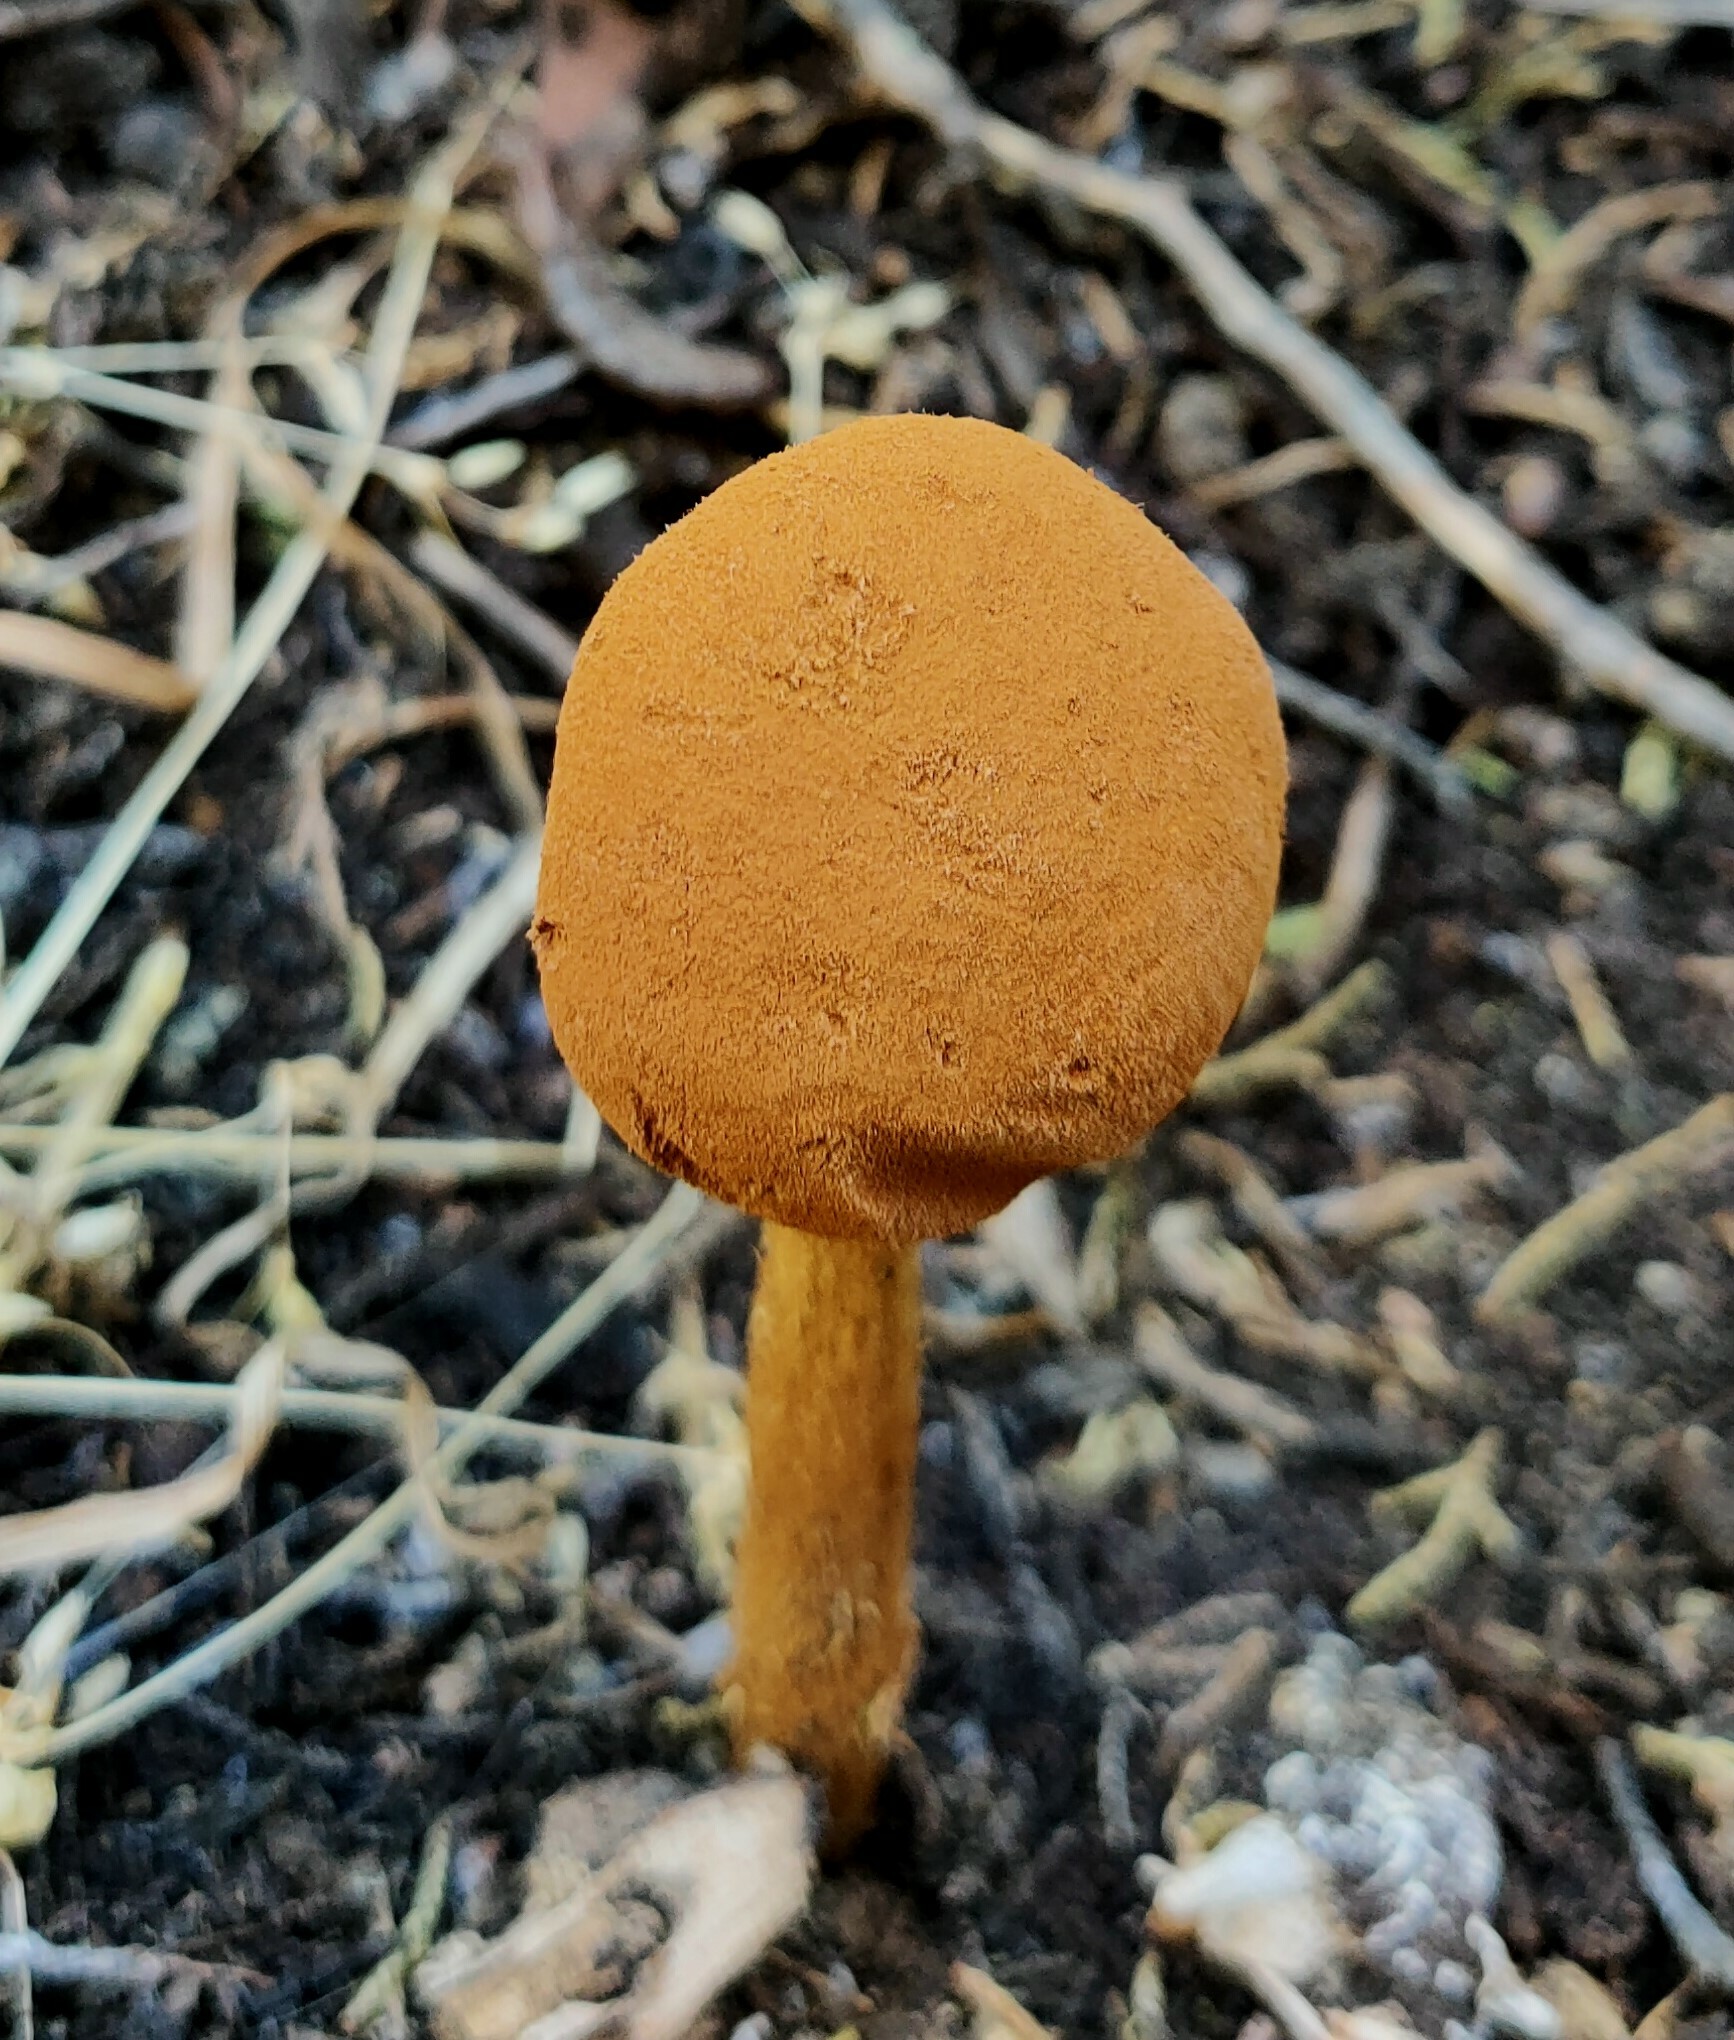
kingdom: Fungi
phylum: Basidiomycota
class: Agaricomycetes
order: Agaricales
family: Agaricaceae
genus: Battarrea
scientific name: Battarrea phalloides
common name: Sandy stiltball
